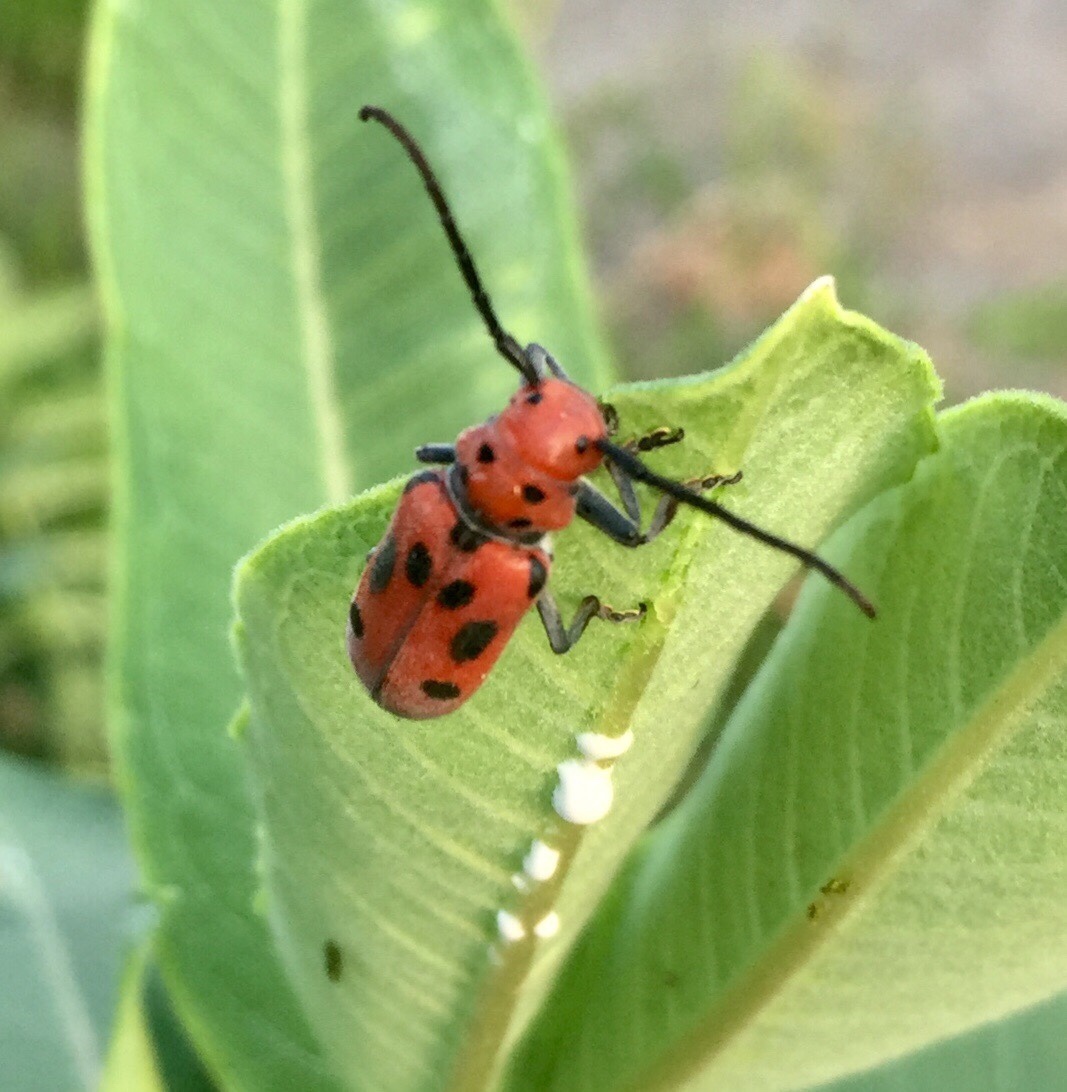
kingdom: Animalia
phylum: Arthropoda
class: Insecta
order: Coleoptera
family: Cerambycidae
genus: Tetraopes
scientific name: Tetraopes tetrophthalmus
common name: Red milkweed beetle
